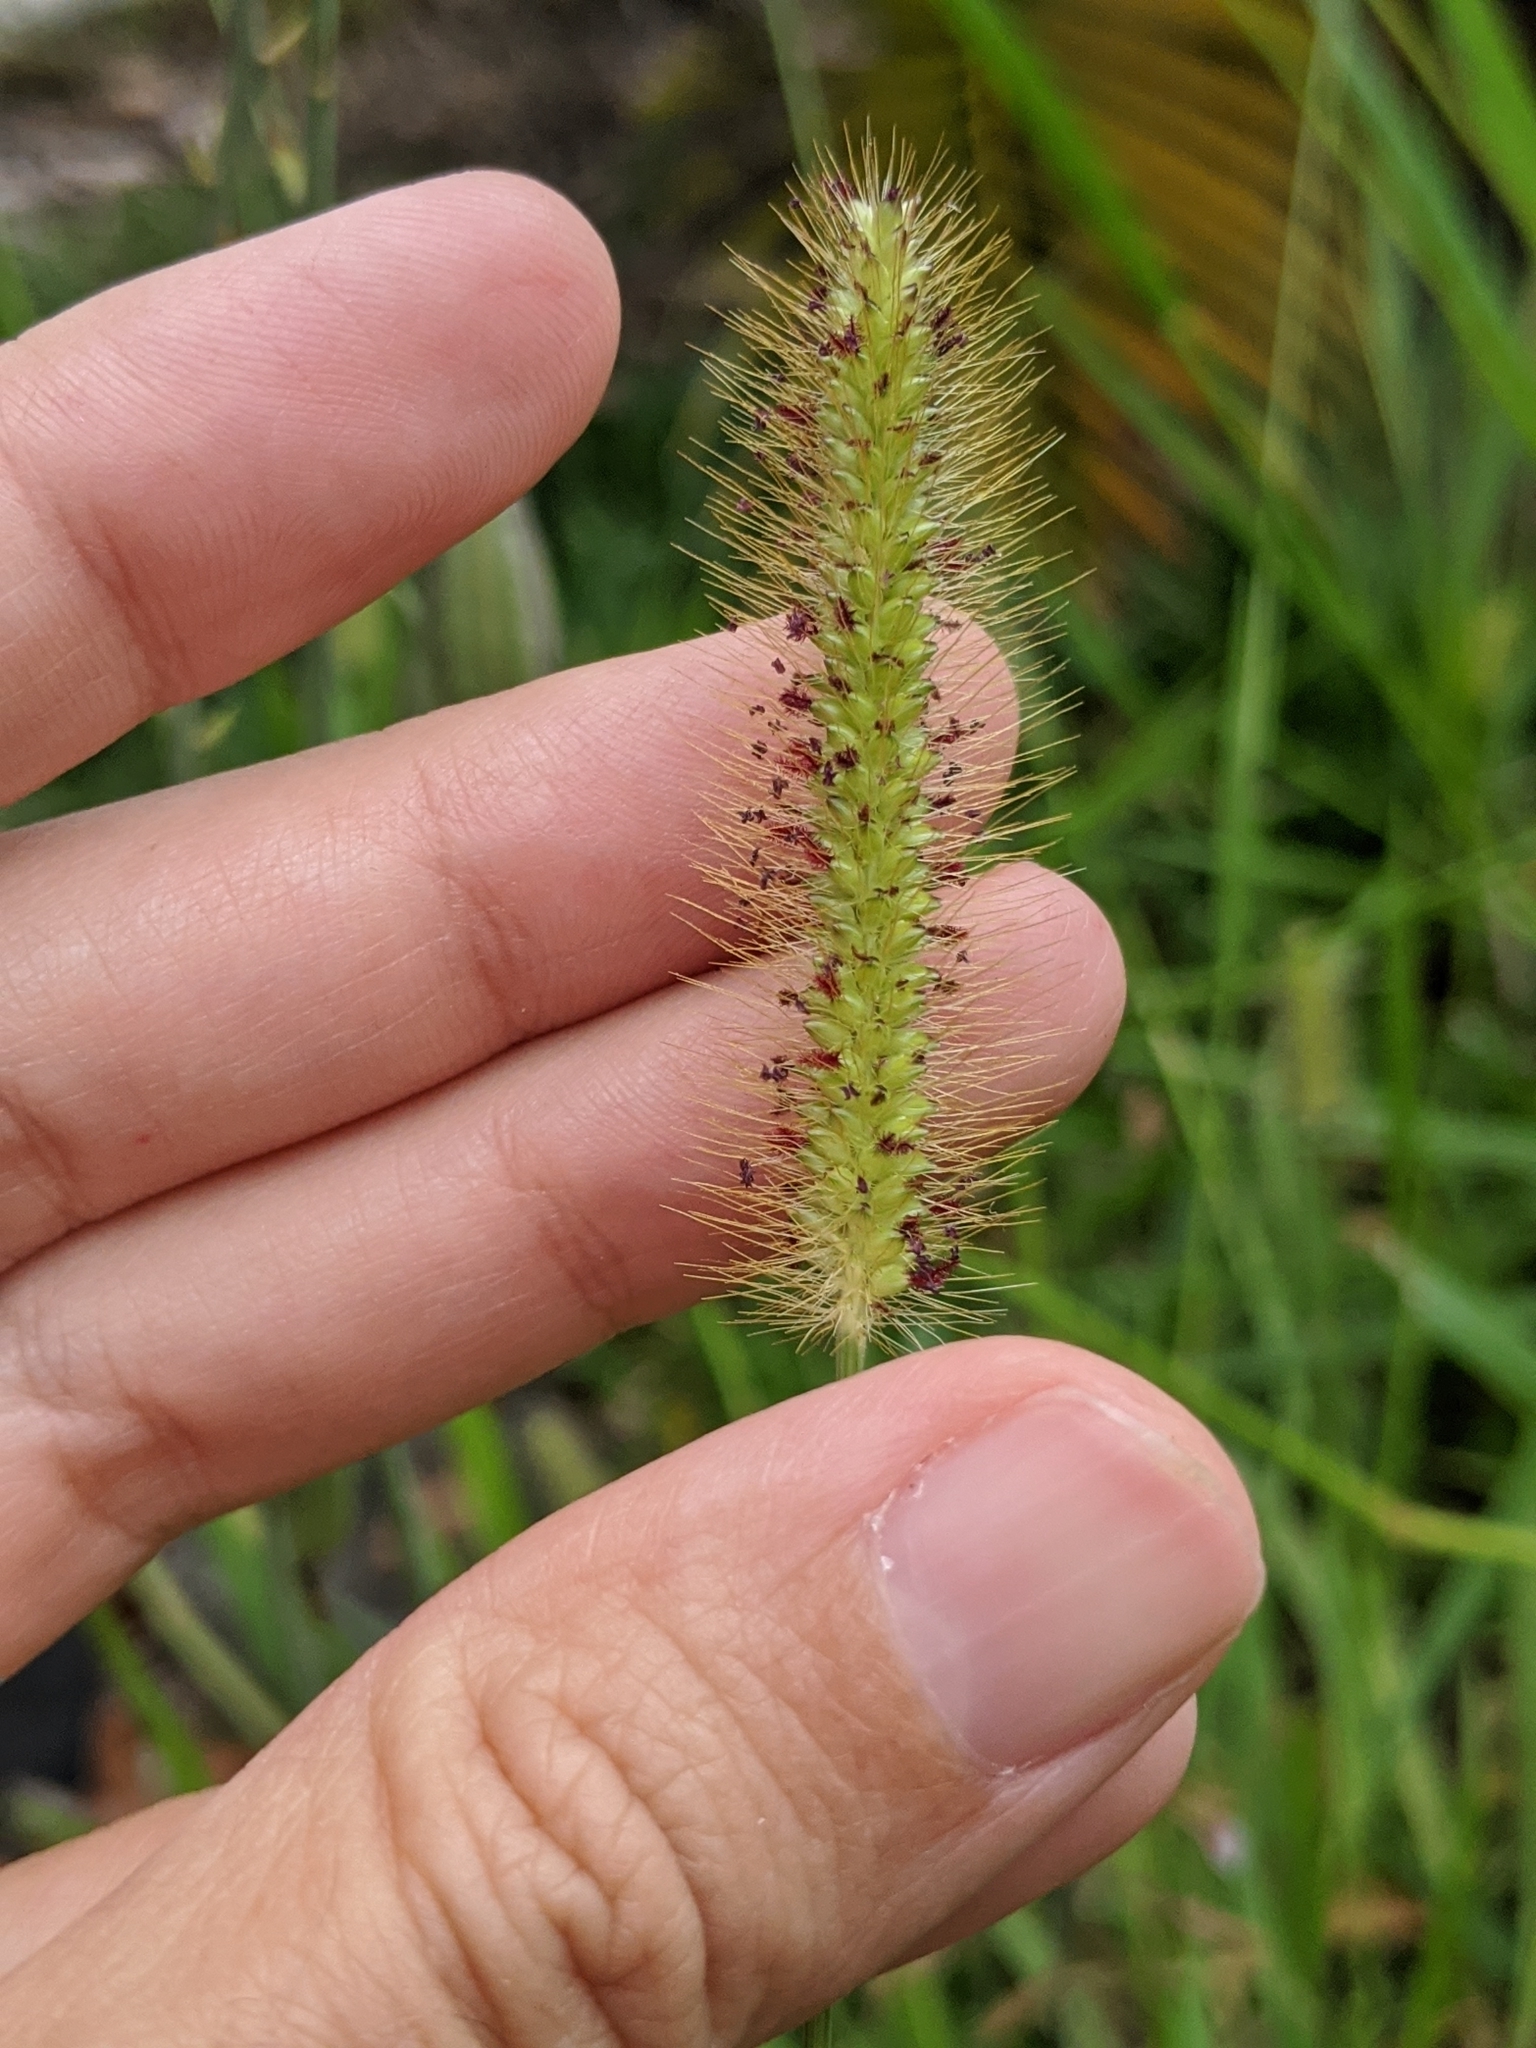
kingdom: Plantae
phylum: Tracheophyta
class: Liliopsida
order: Poales
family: Poaceae
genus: Setaria
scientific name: Setaria parviflora
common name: Knotroot bristle-grass
